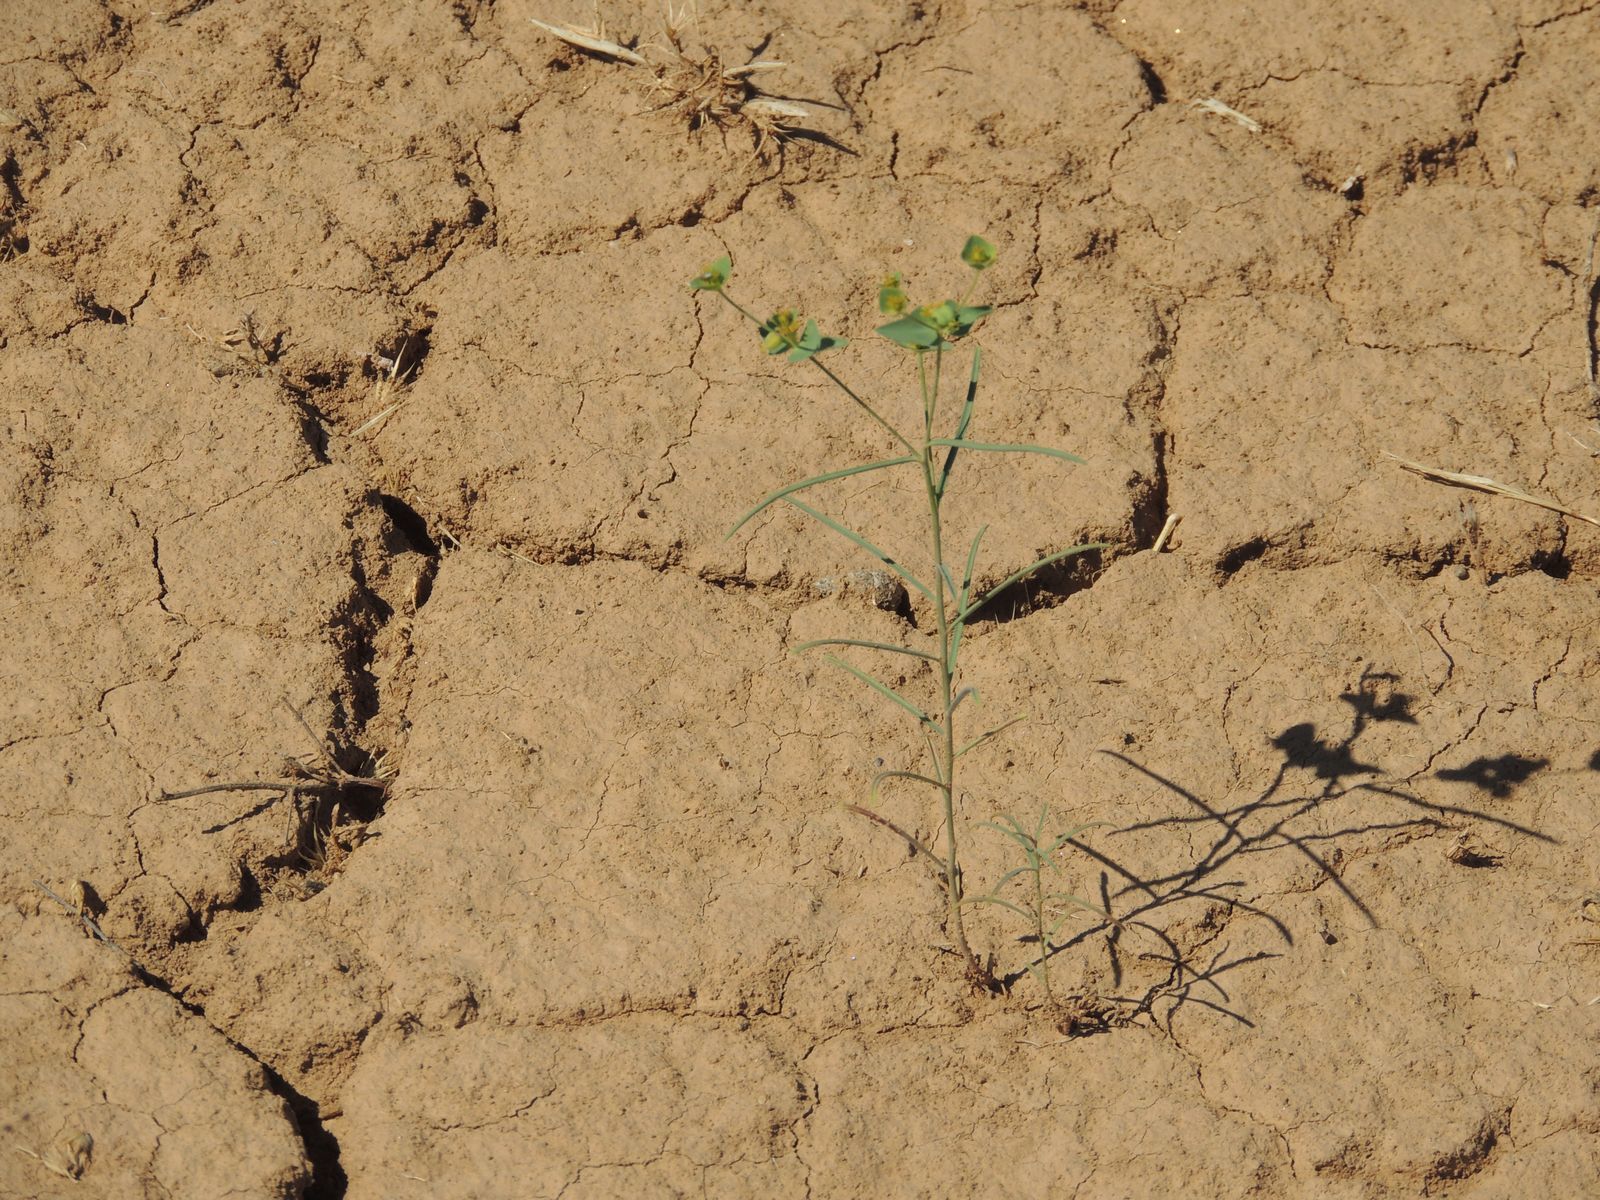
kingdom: Plantae
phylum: Tracheophyta
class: Magnoliopsida
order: Malpighiales
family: Euphorbiaceae
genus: Euphorbia
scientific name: Euphorbia praecox
